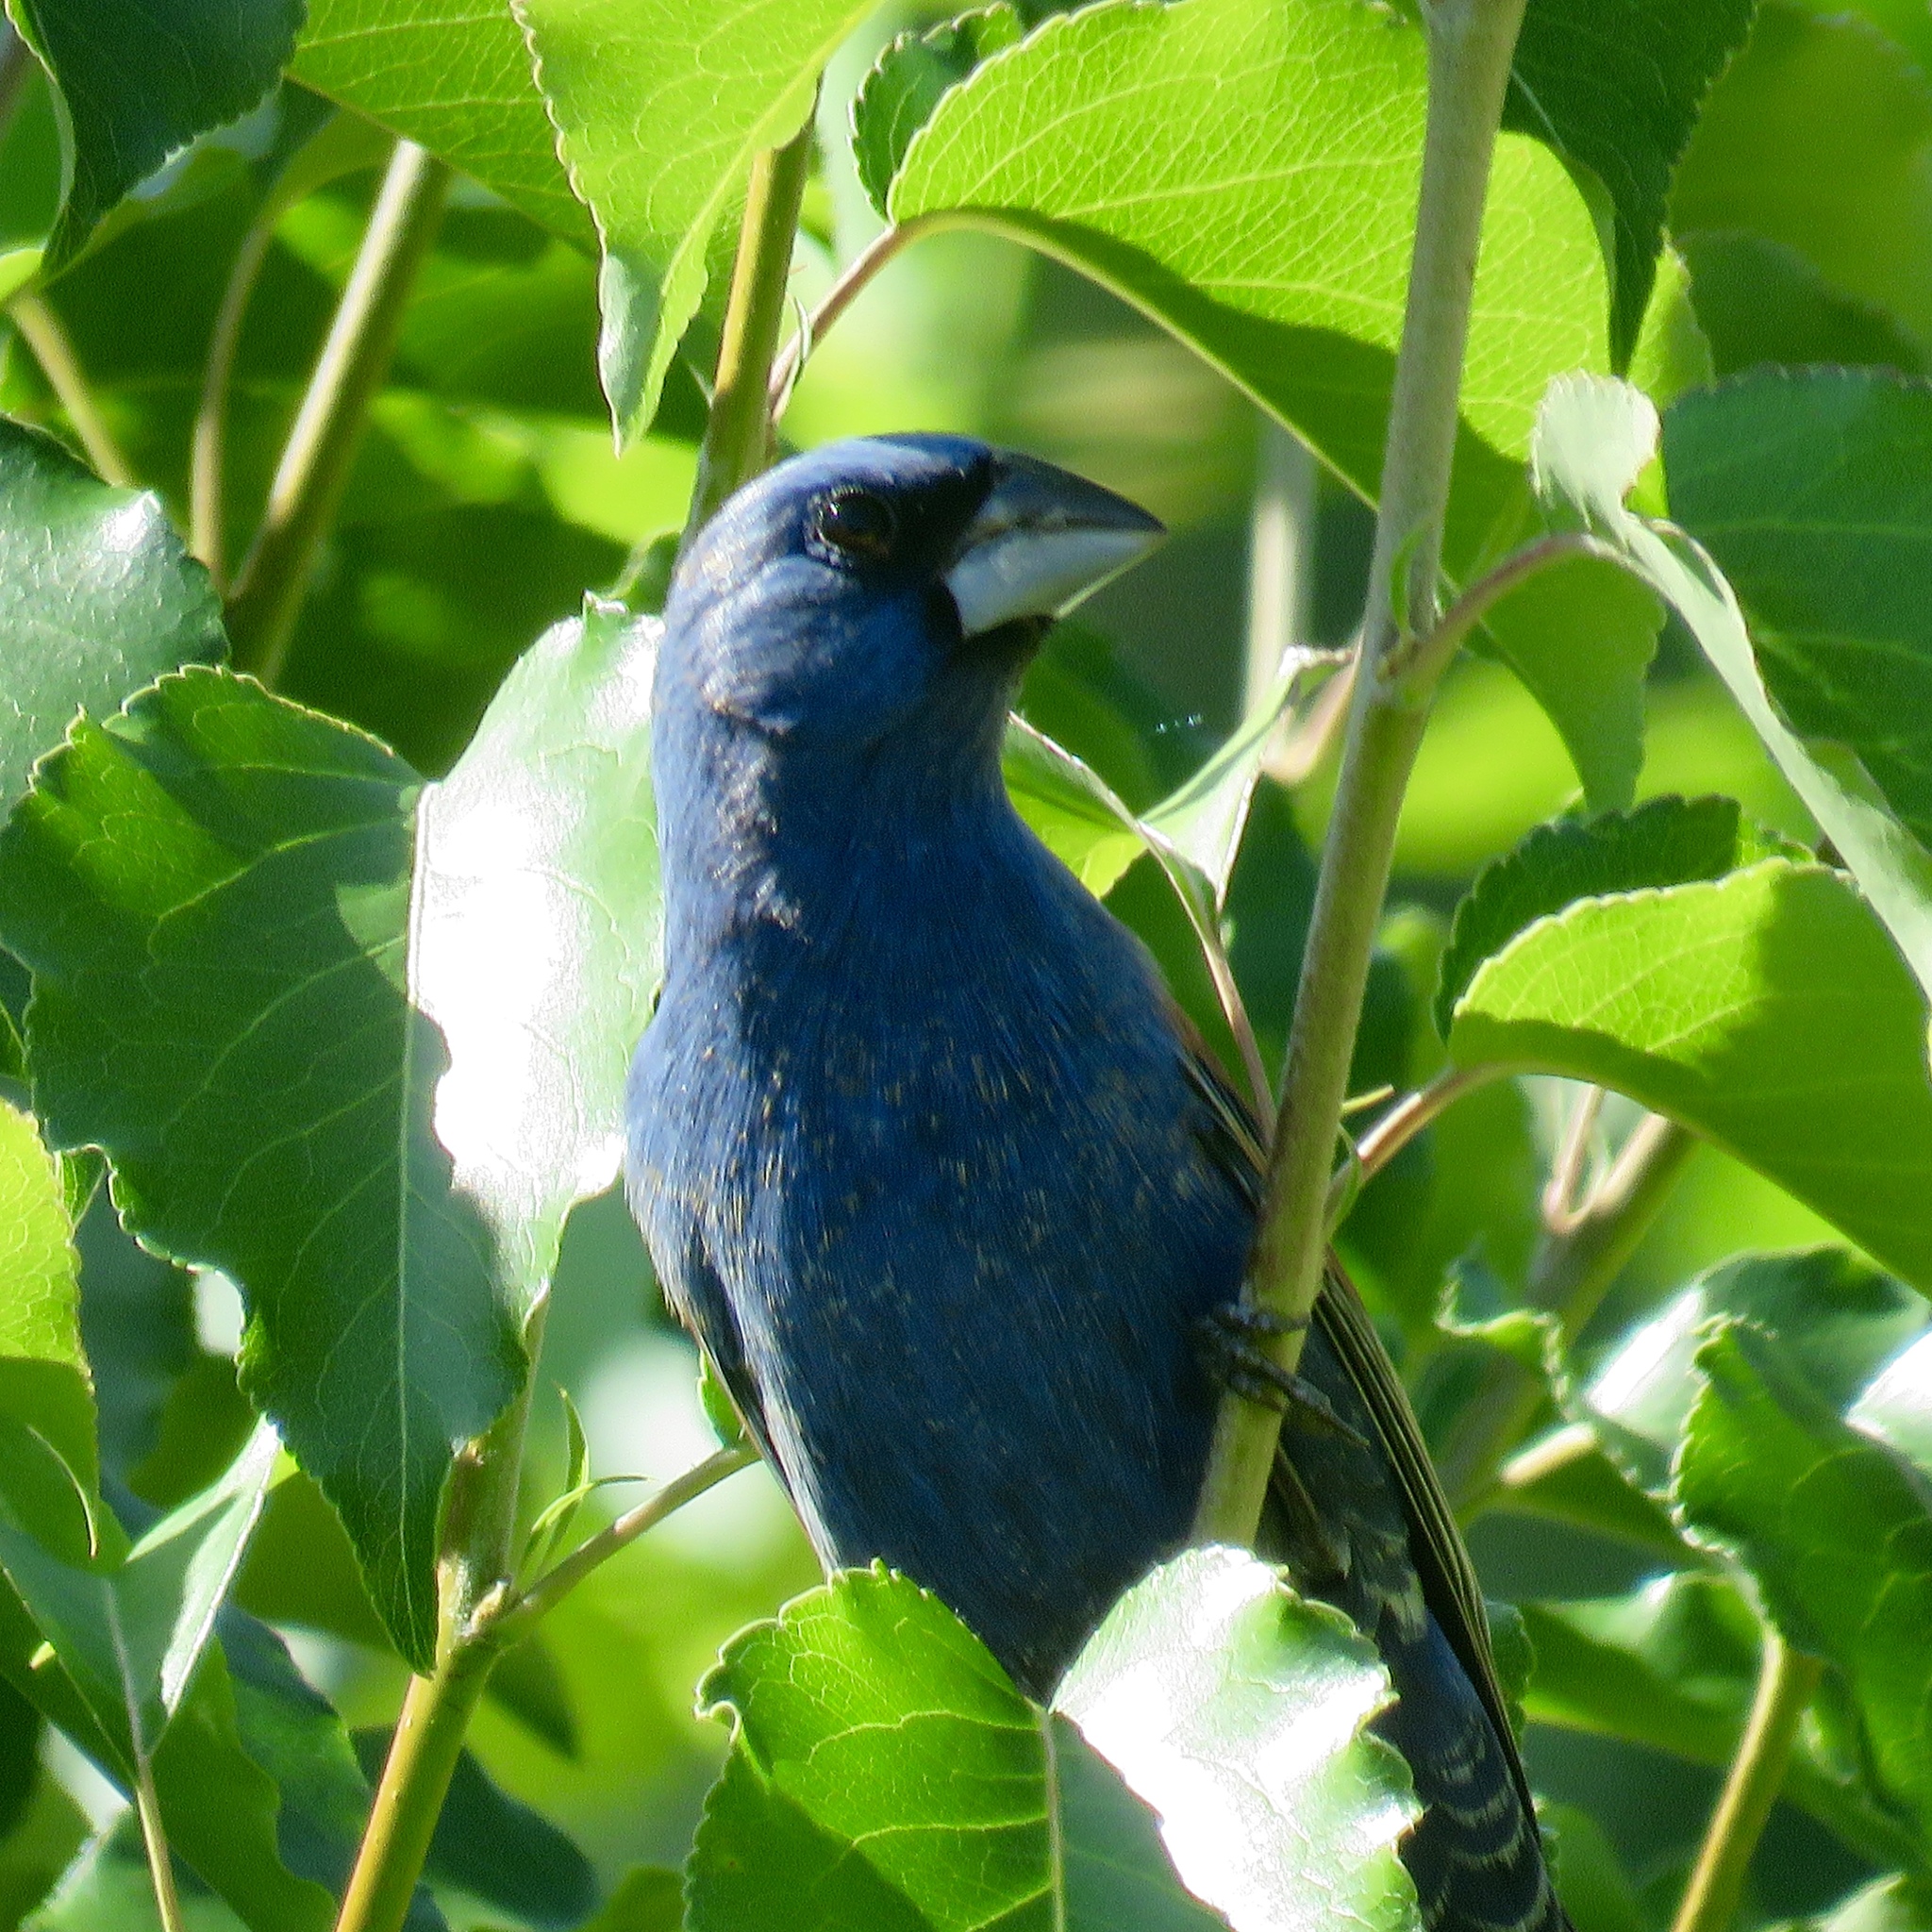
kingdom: Animalia
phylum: Chordata
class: Aves
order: Passeriformes
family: Cardinalidae
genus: Passerina
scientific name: Passerina caerulea
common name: Blue grosbeak
